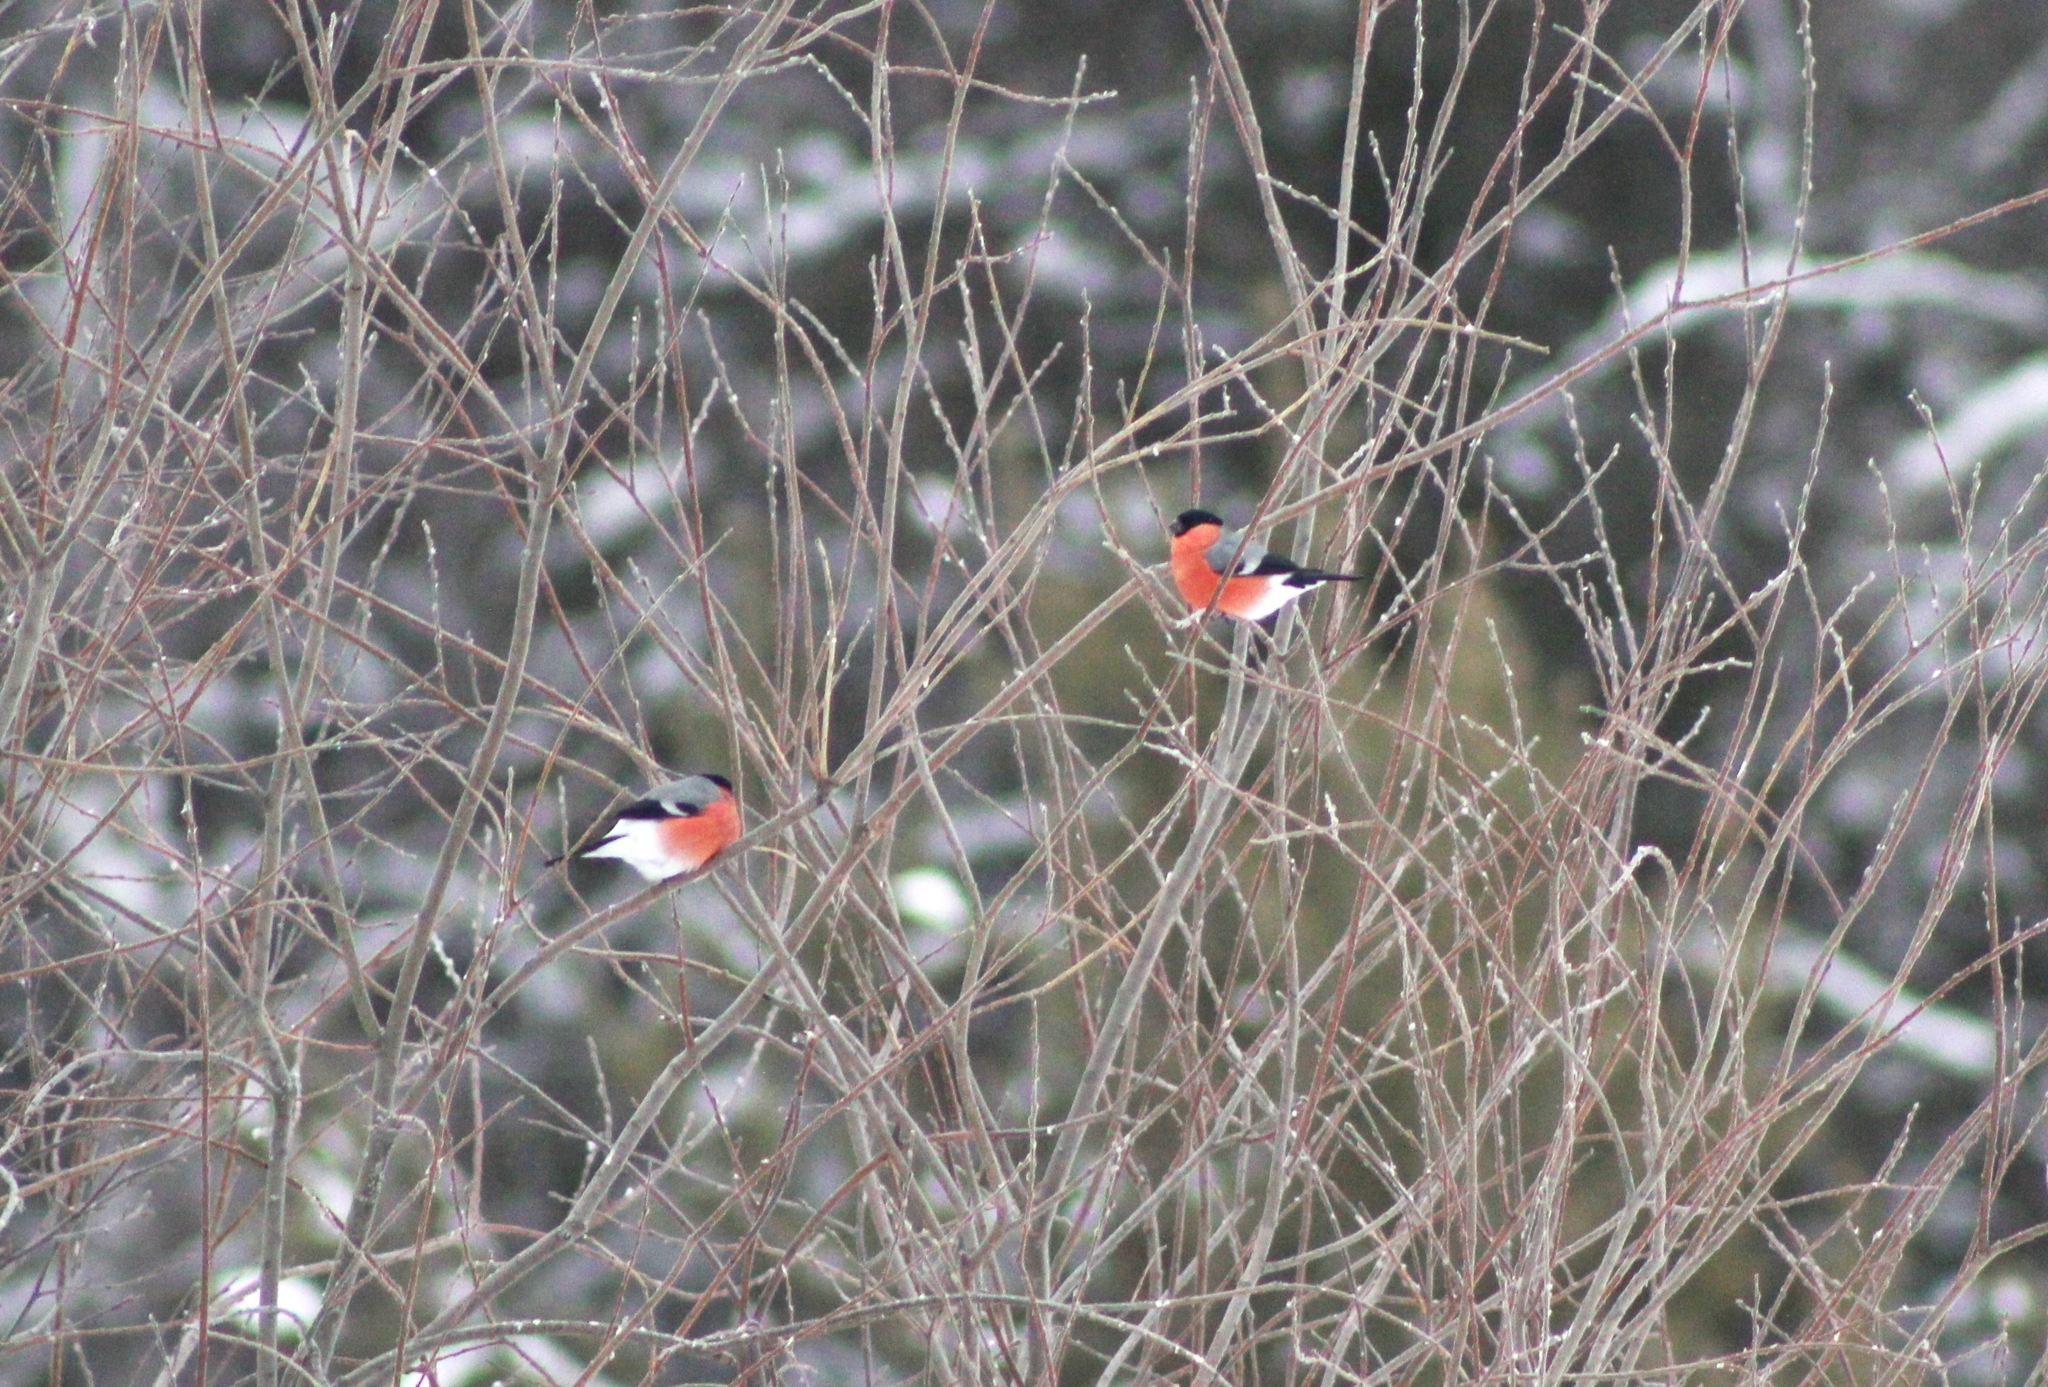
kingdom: Animalia
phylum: Chordata
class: Aves
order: Passeriformes
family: Fringillidae
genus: Pyrrhula
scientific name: Pyrrhula pyrrhula
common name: Eurasian bullfinch
